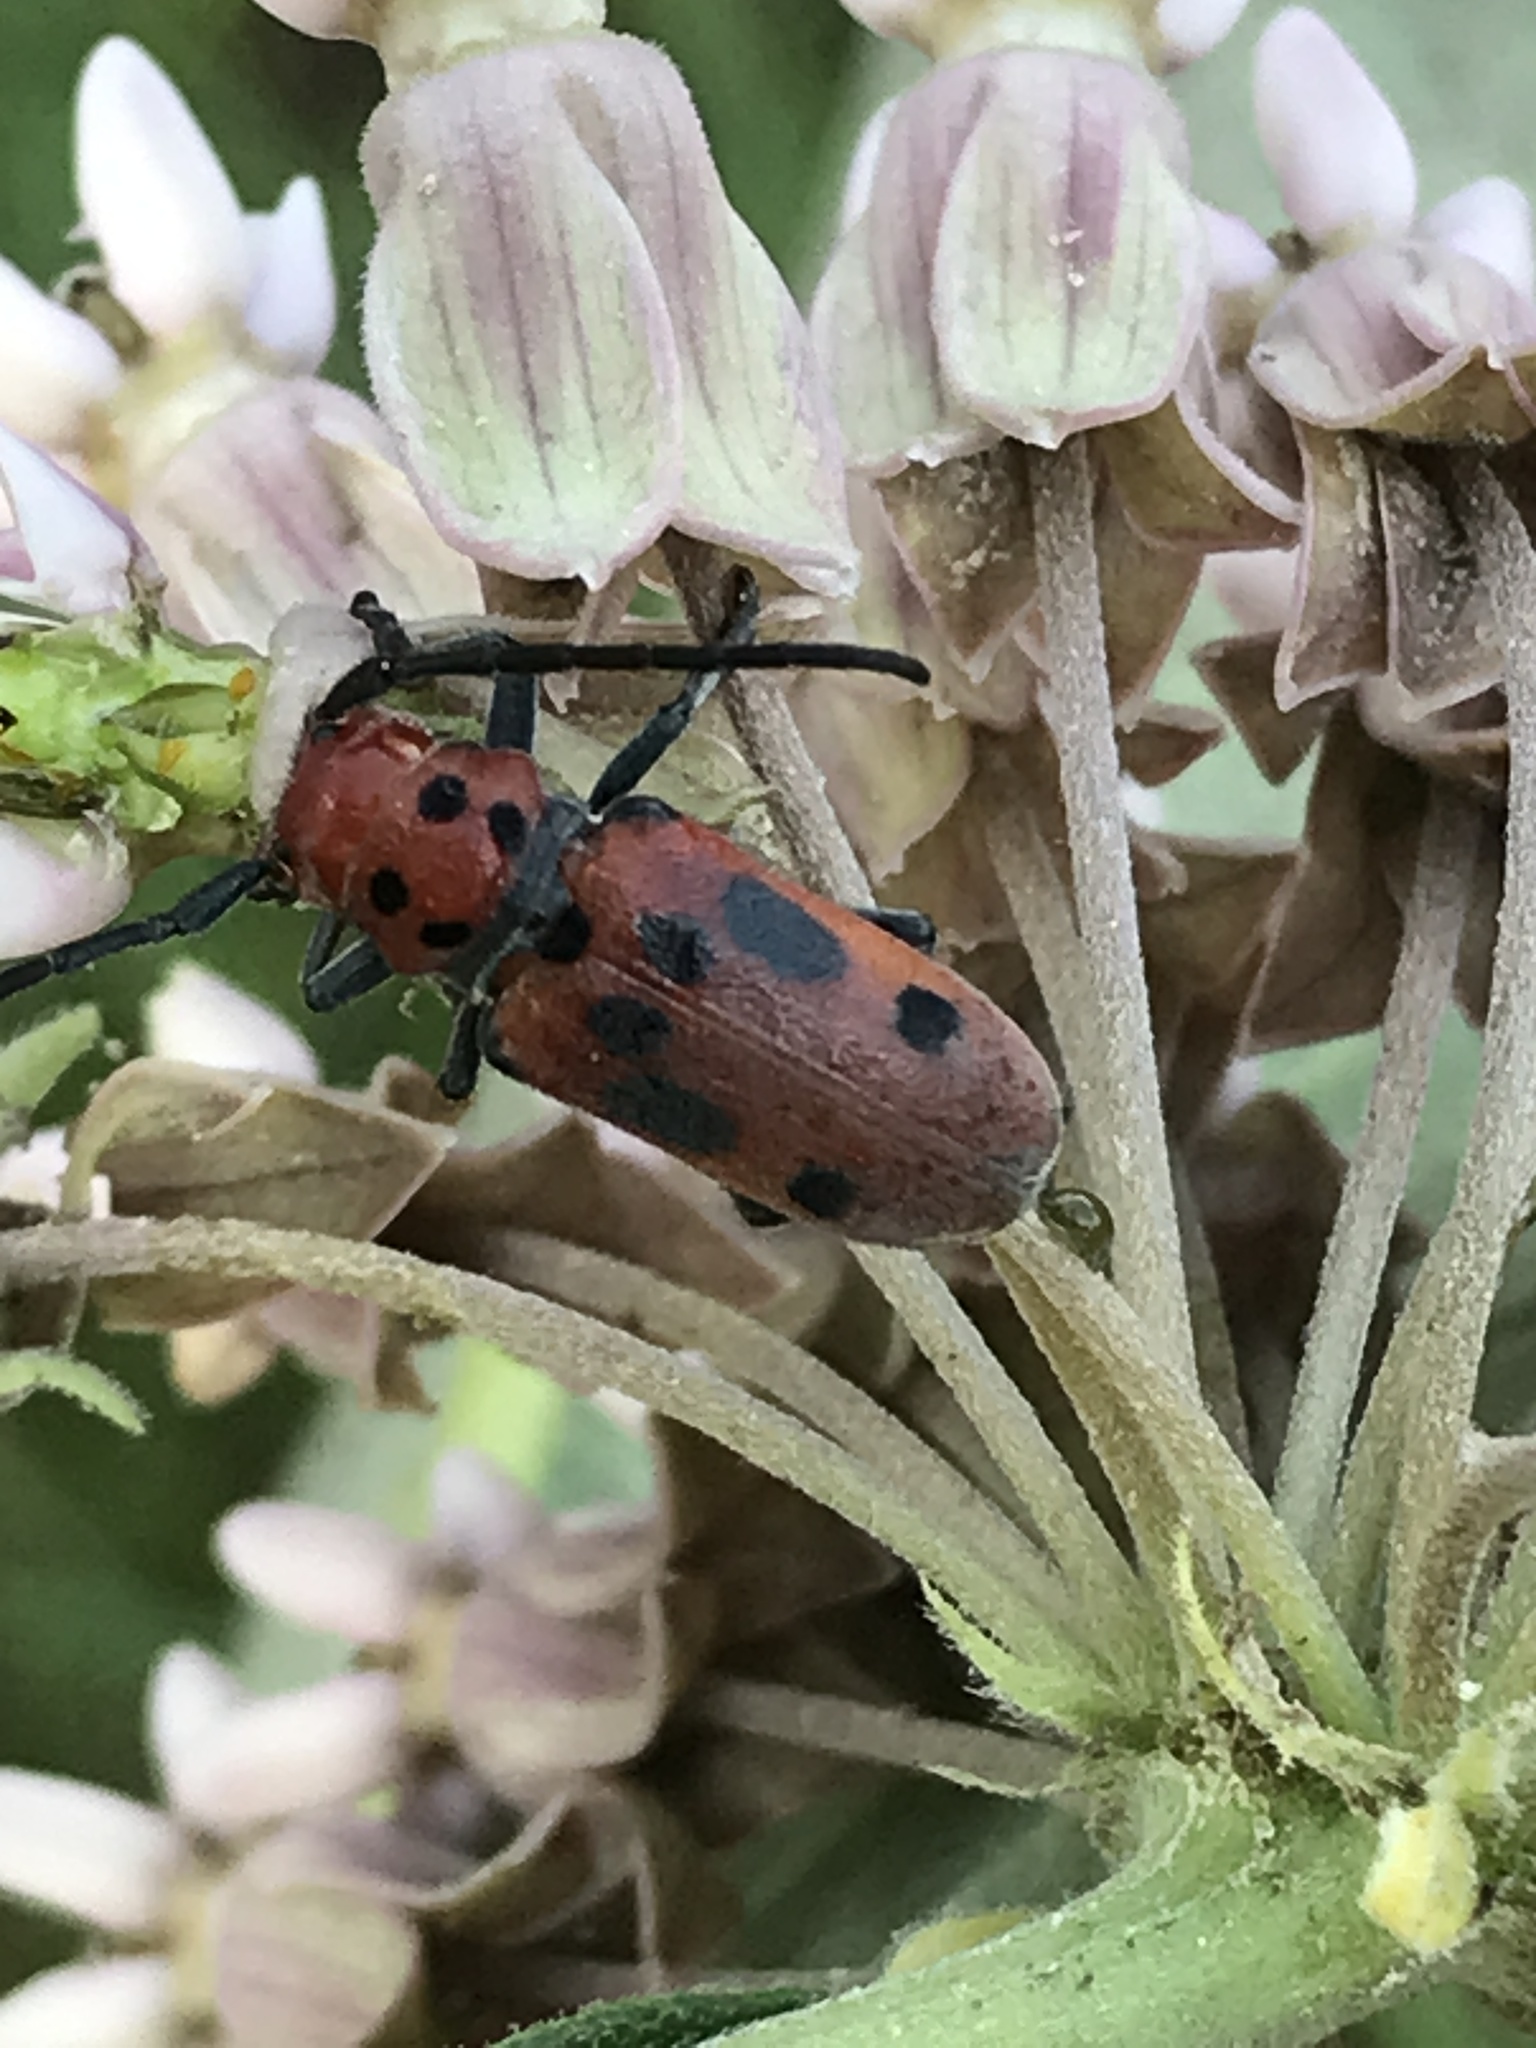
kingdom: Animalia
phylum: Arthropoda
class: Insecta
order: Coleoptera
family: Cerambycidae
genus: Tetraopes
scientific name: Tetraopes tetrophthalmus
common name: Red milkweed beetle
